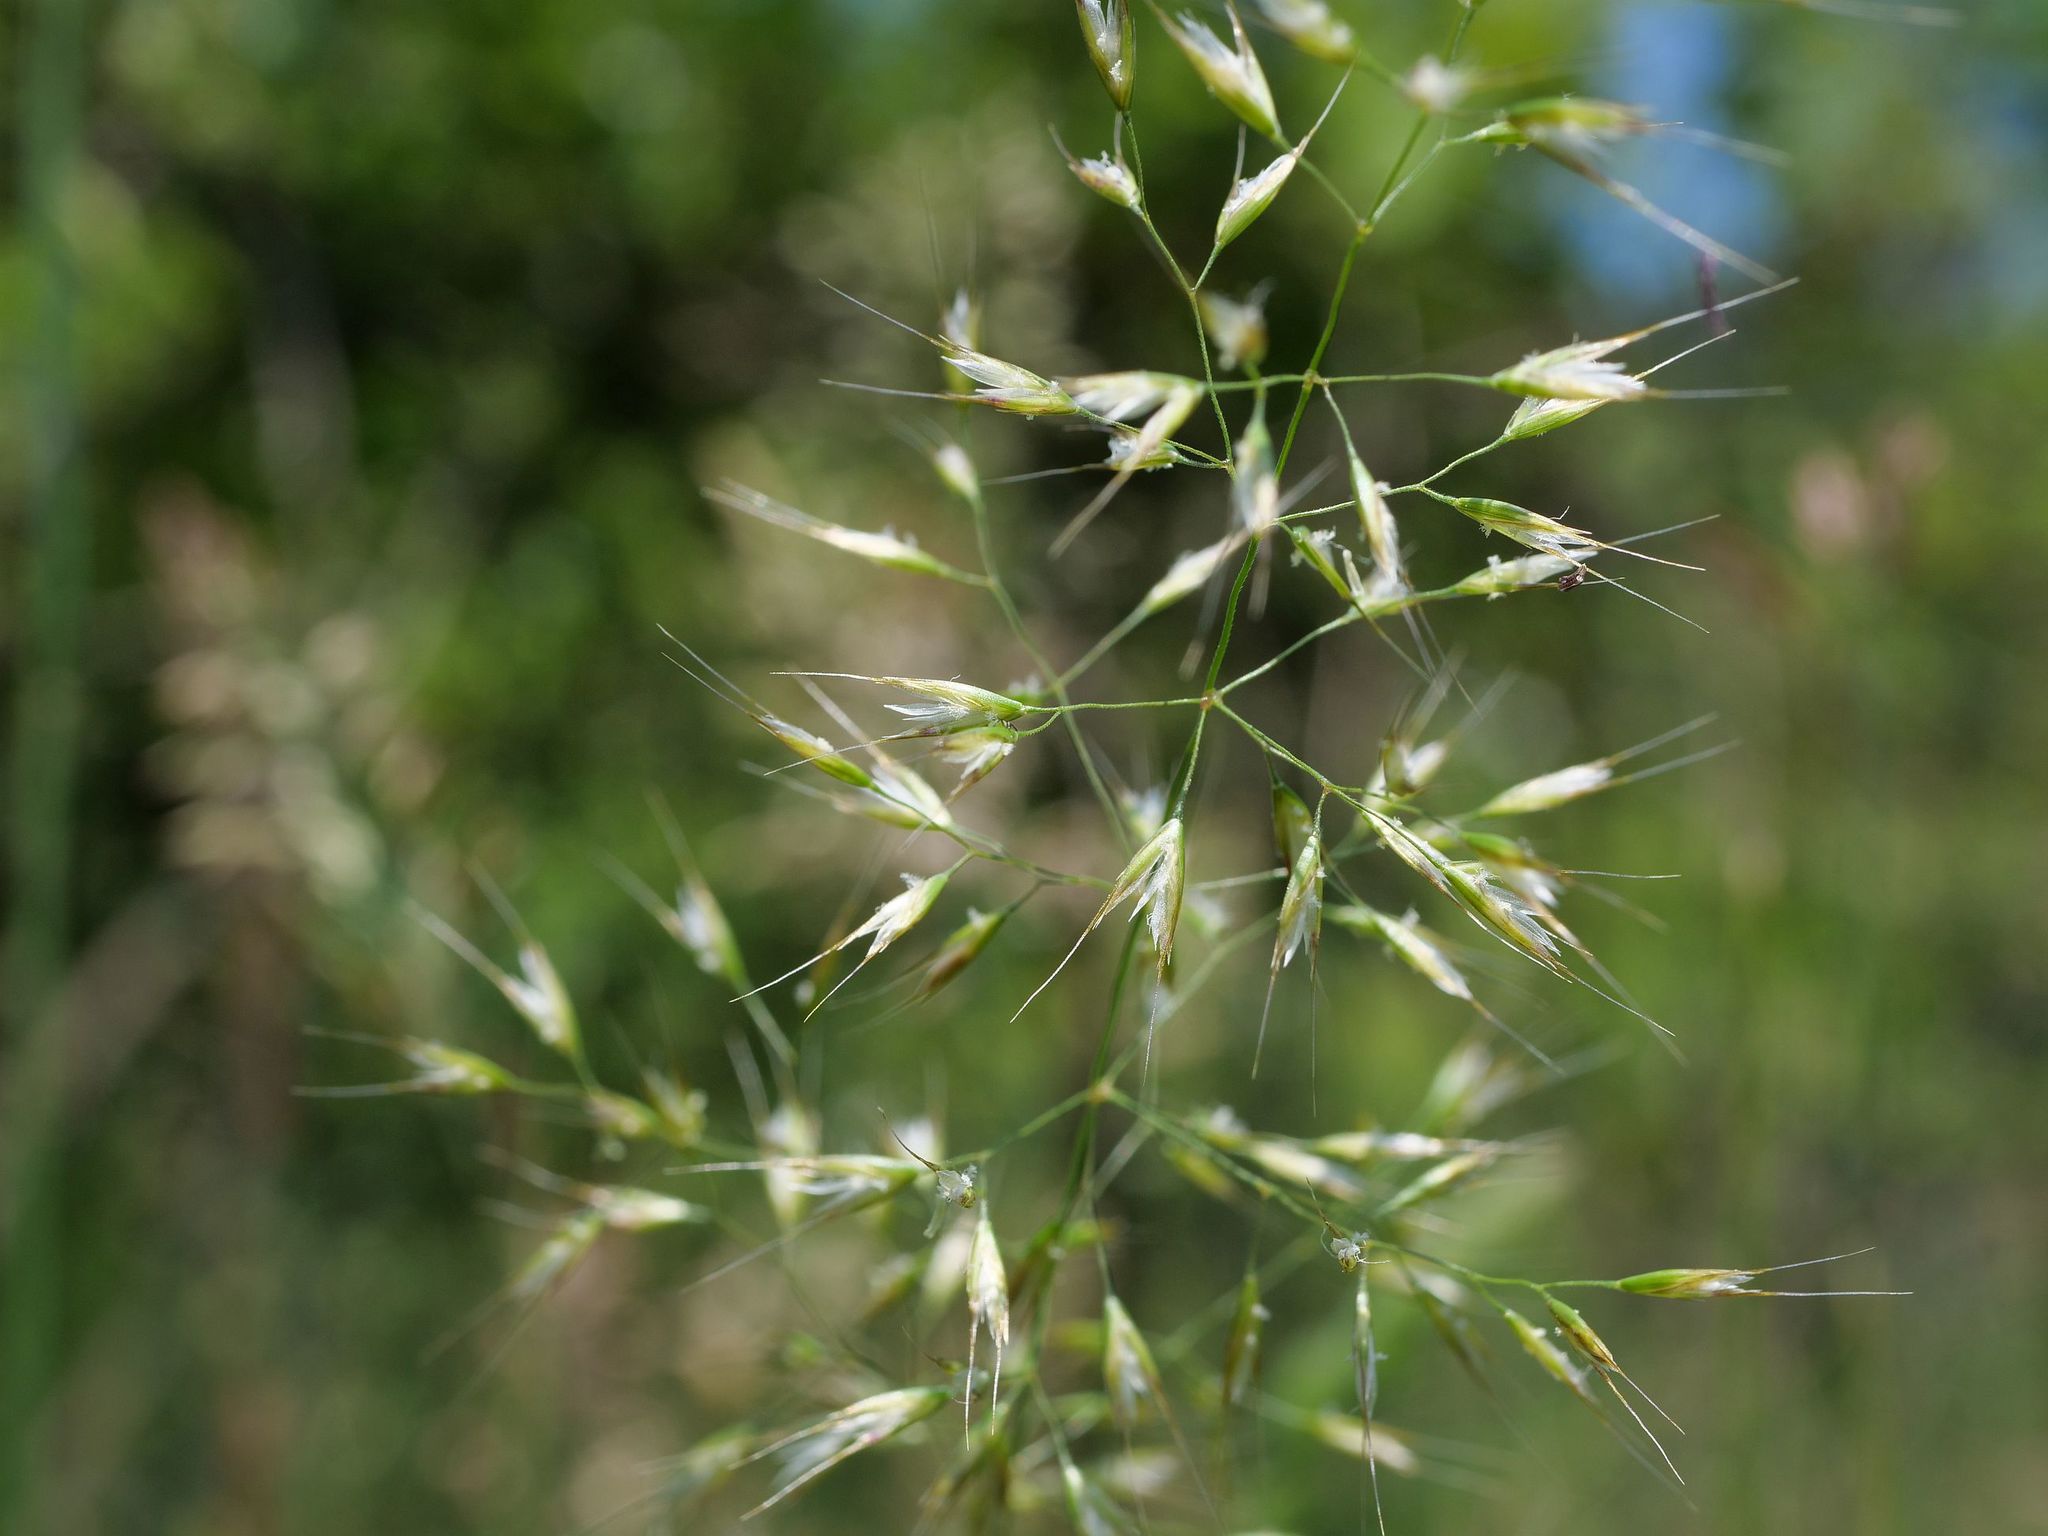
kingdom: Plantae
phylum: Tracheophyta
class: Liliopsida
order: Poales
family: Poaceae
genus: Trisetum
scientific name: Trisetum flavescens
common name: Yellow oat-grass
